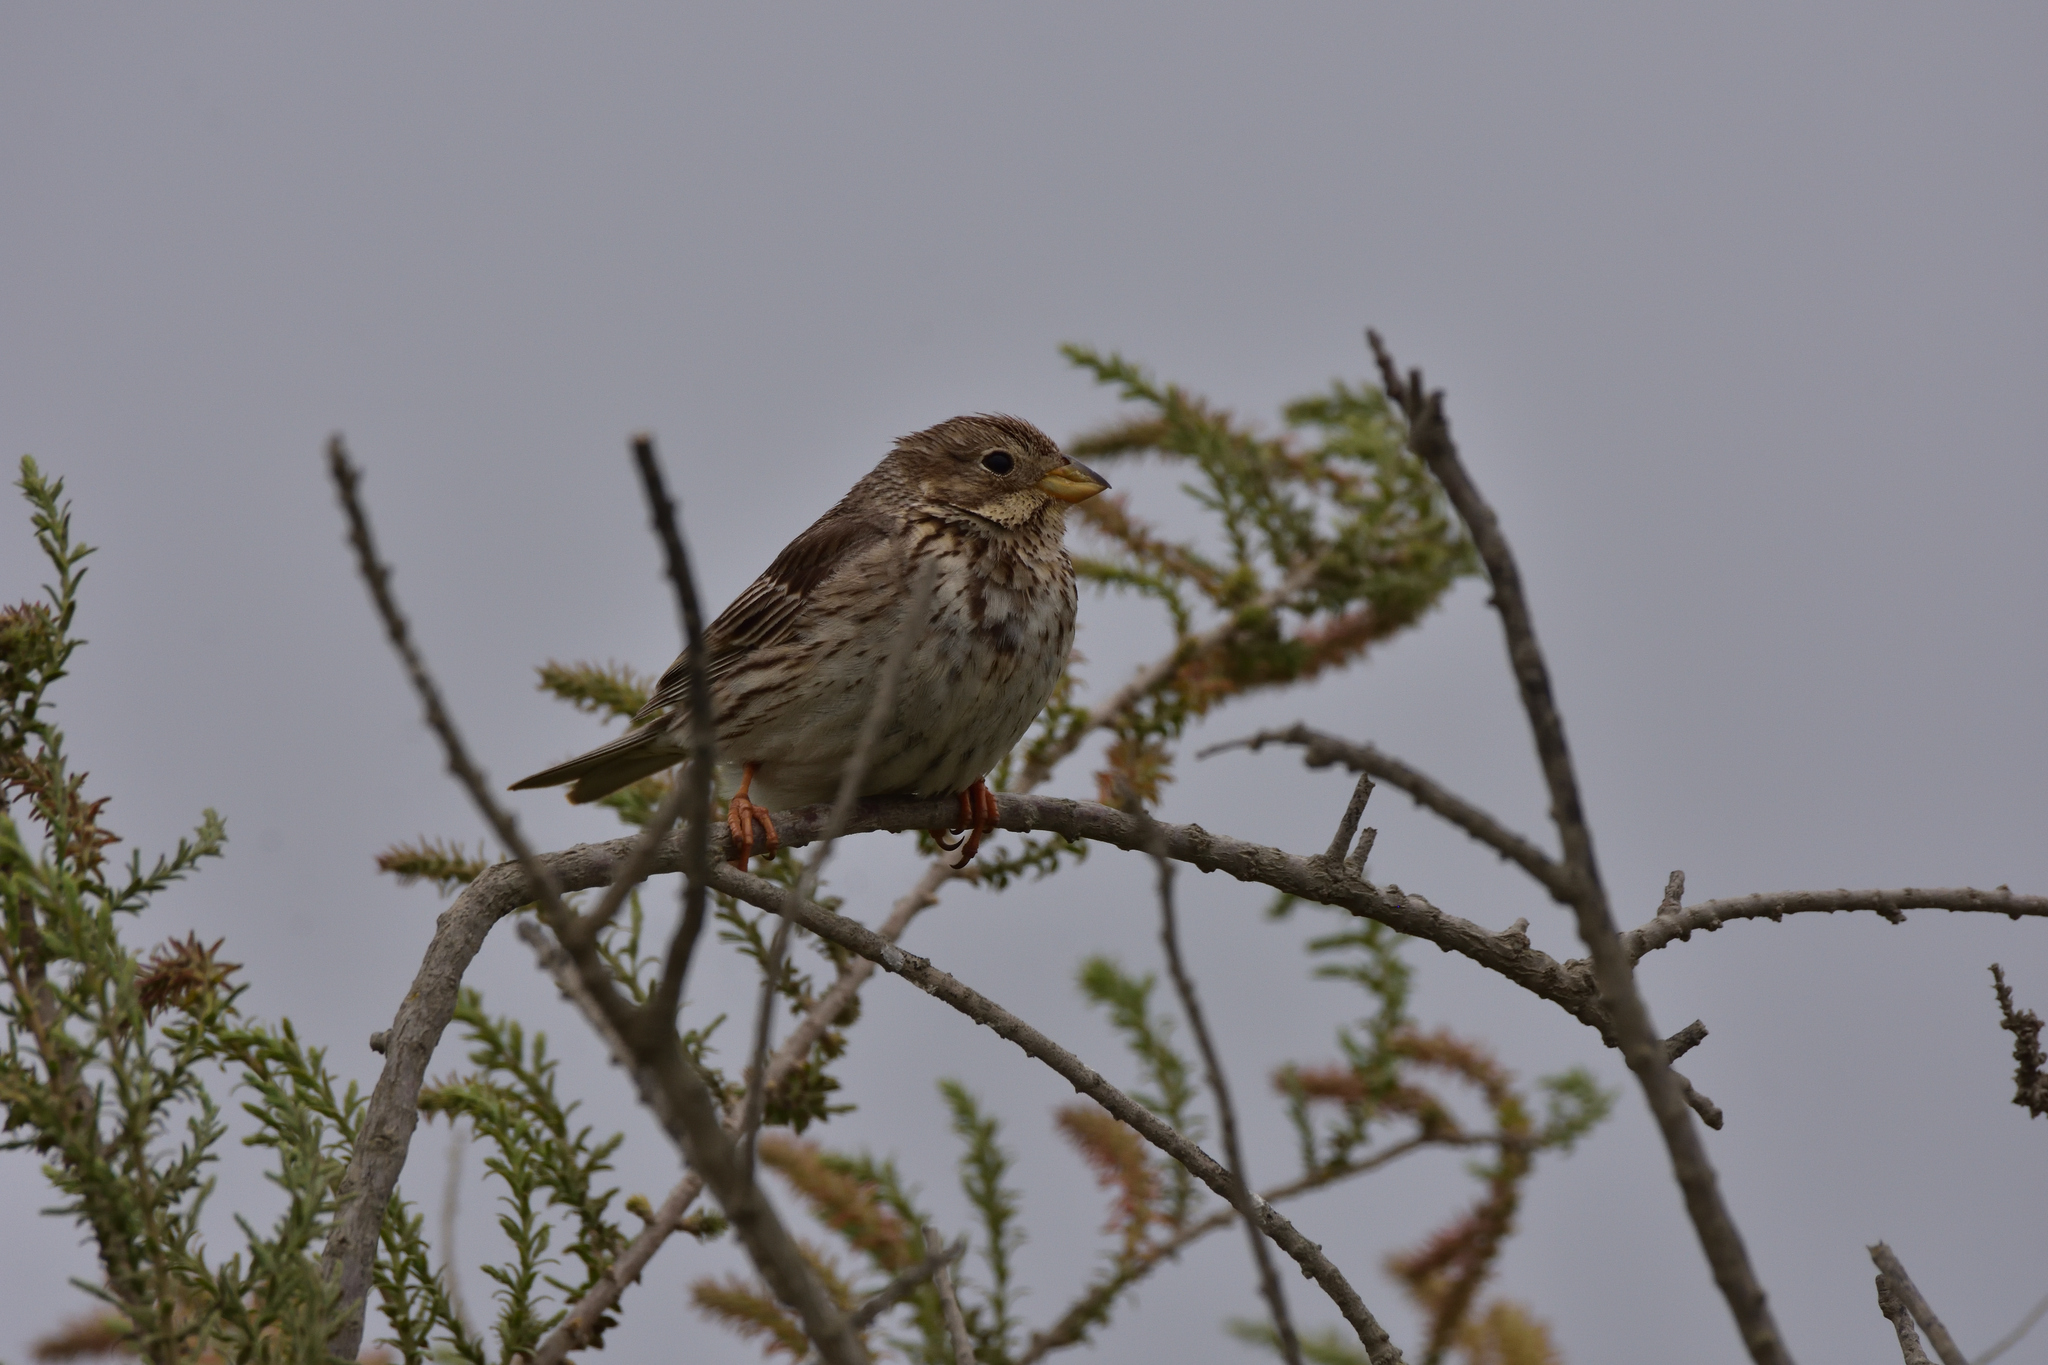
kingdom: Animalia
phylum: Chordata
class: Aves
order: Passeriformes
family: Emberizidae
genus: Emberiza
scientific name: Emberiza calandra
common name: Corn bunting
